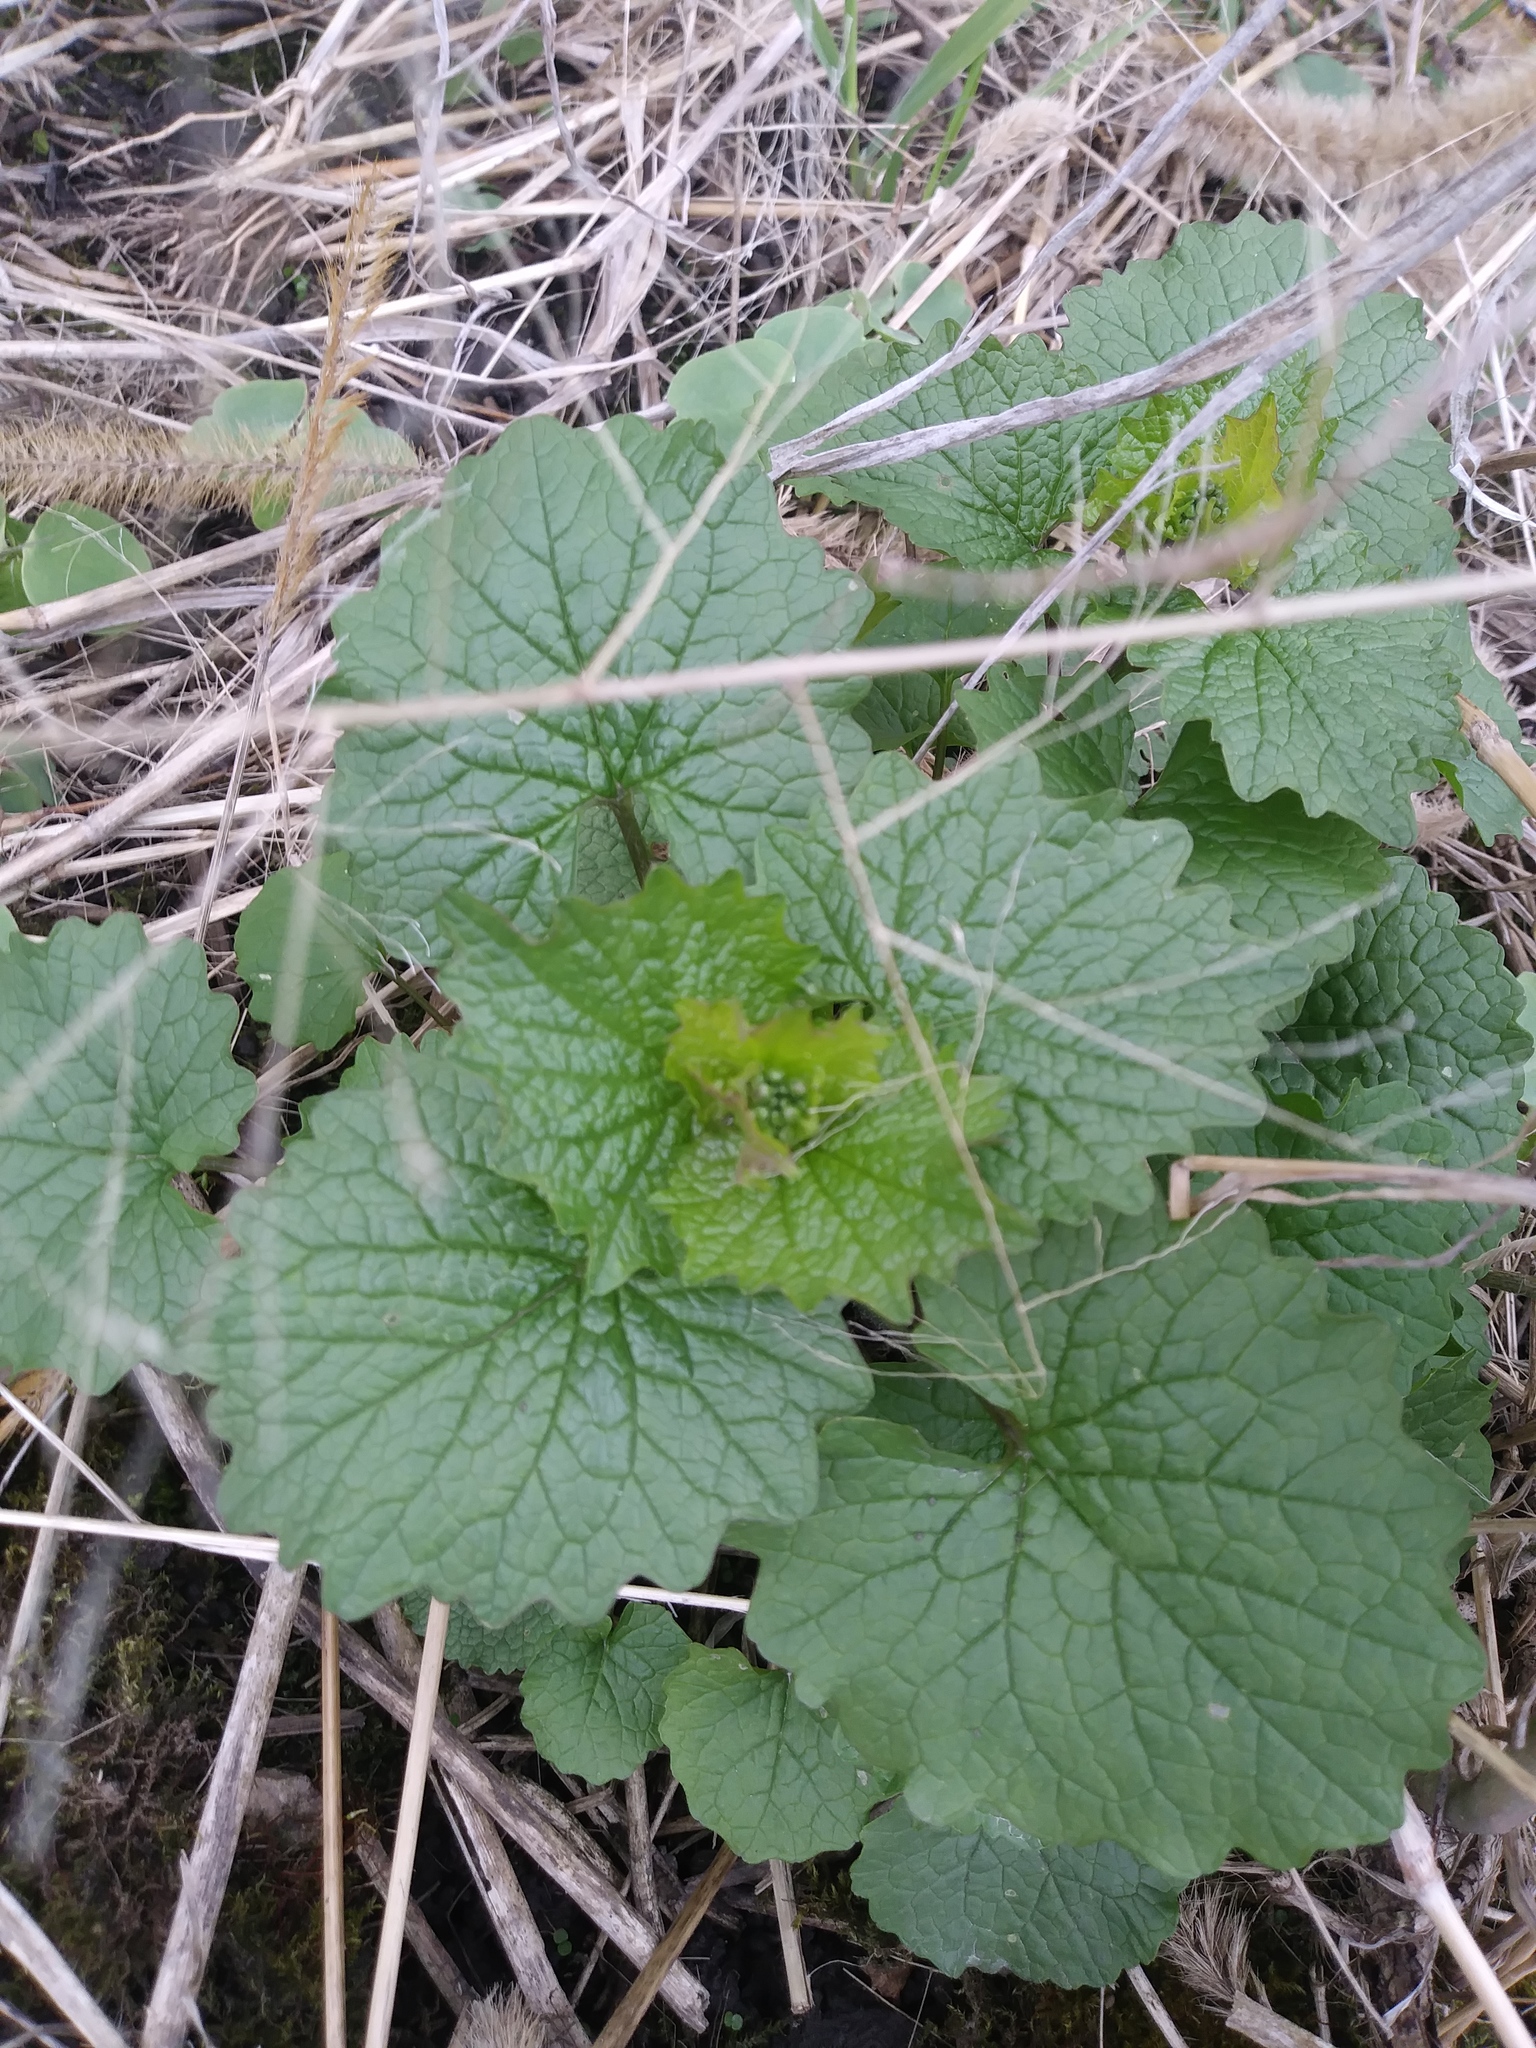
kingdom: Plantae
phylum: Tracheophyta
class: Magnoliopsida
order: Brassicales
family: Brassicaceae
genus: Alliaria
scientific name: Alliaria petiolata
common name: Garlic mustard
